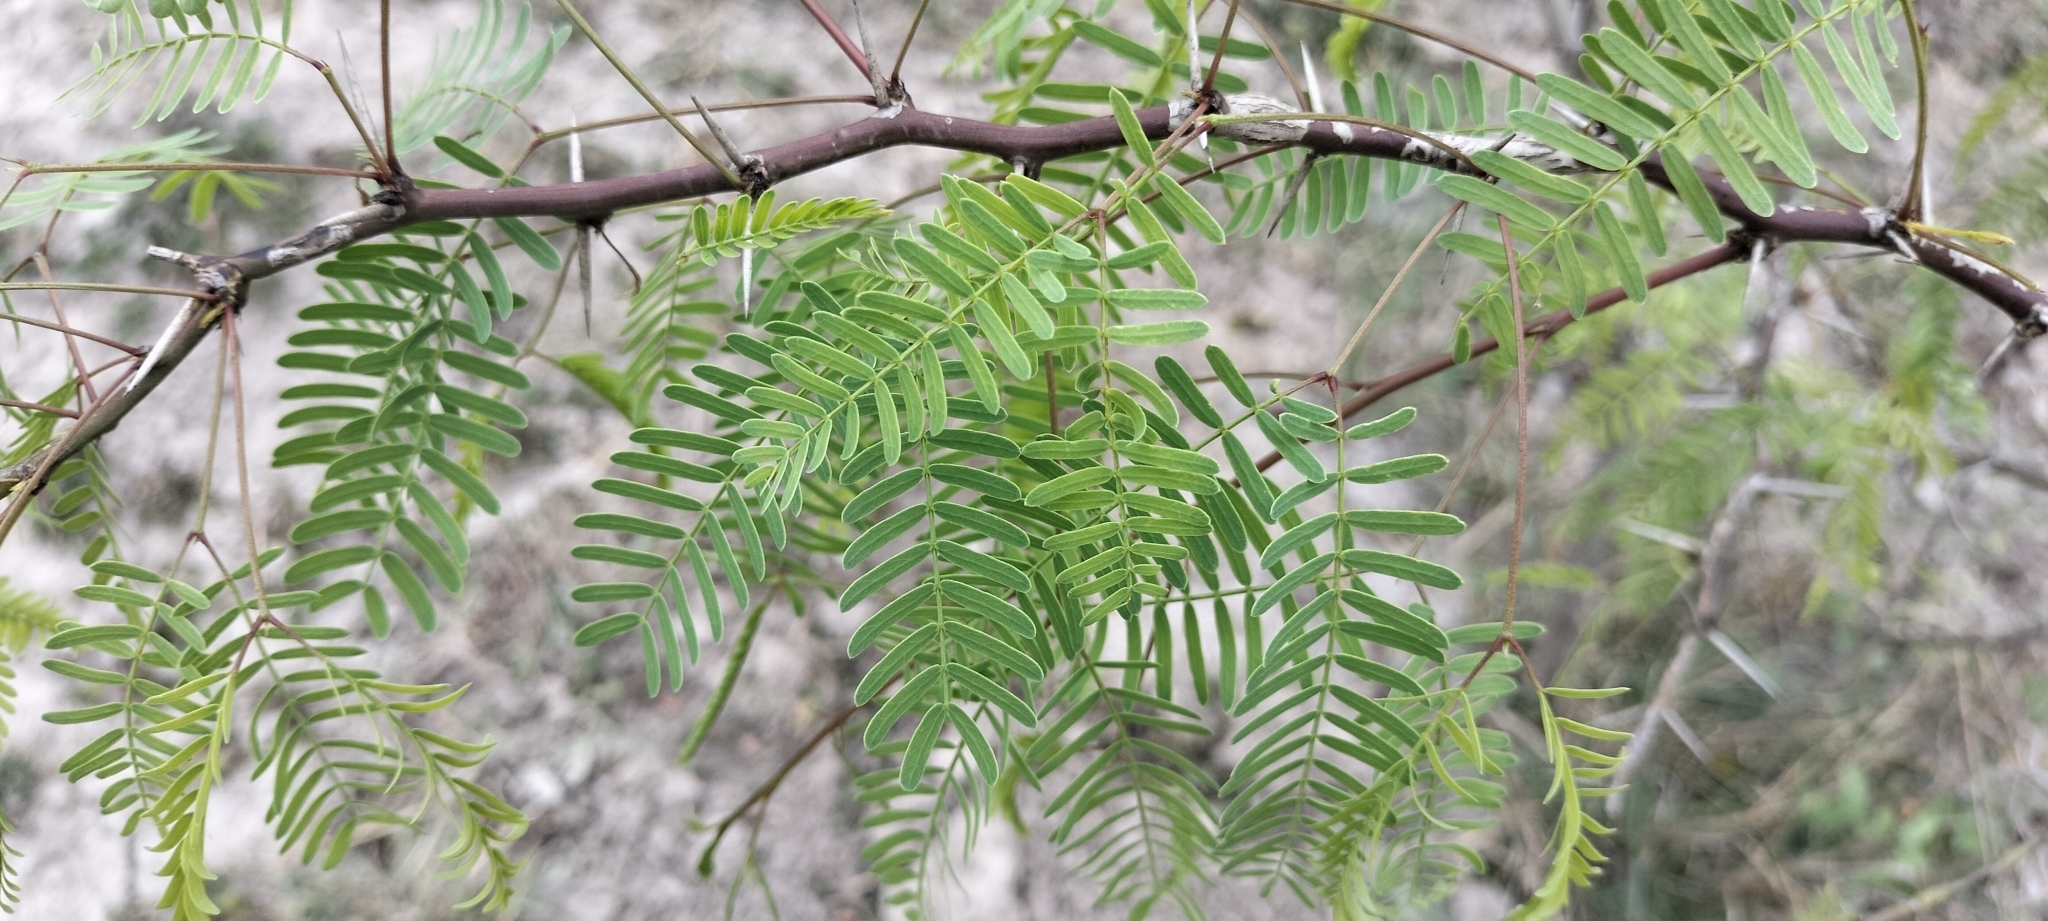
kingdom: Plantae
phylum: Tracheophyta
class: Magnoliopsida
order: Fabales
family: Fabaceae
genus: Prosopis
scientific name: Prosopis glandulosa
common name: Honey mesquite
